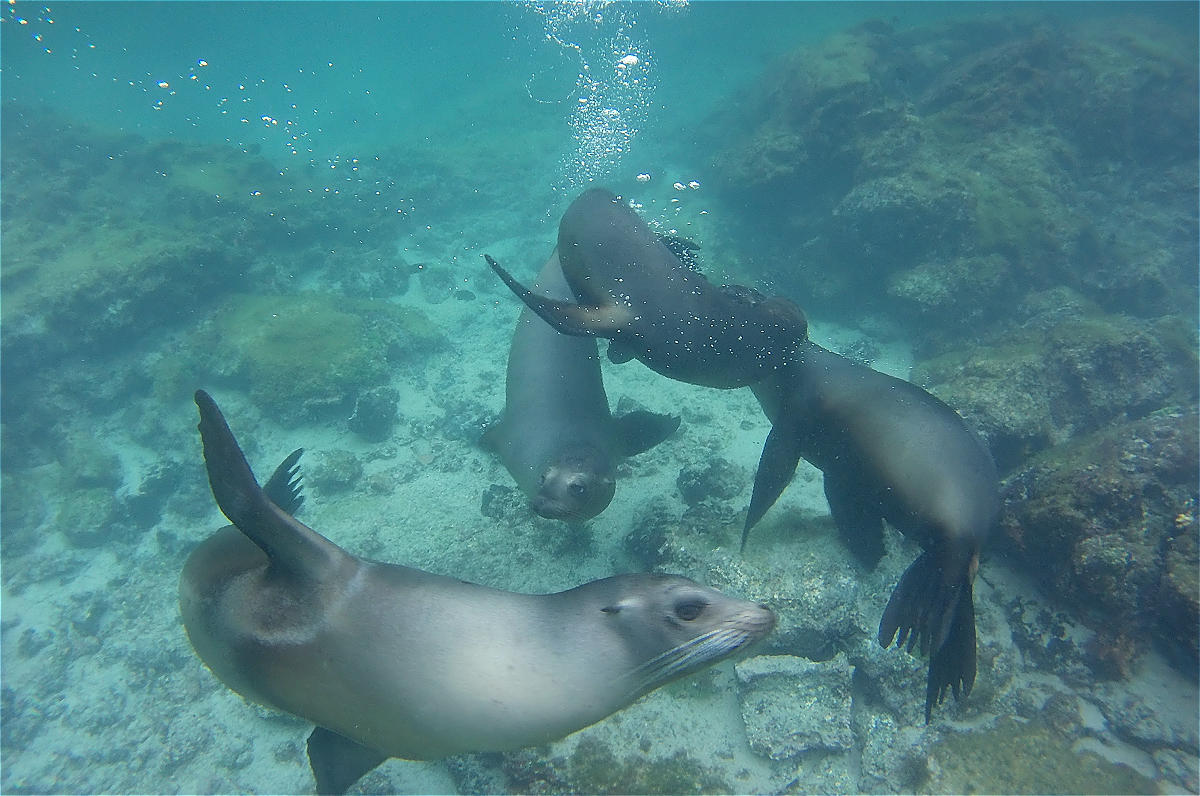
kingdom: Animalia
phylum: Chordata
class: Mammalia
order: Carnivora
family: Otariidae
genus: Zalophus
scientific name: Zalophus wollebaeki
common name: Galapagos sea lion
